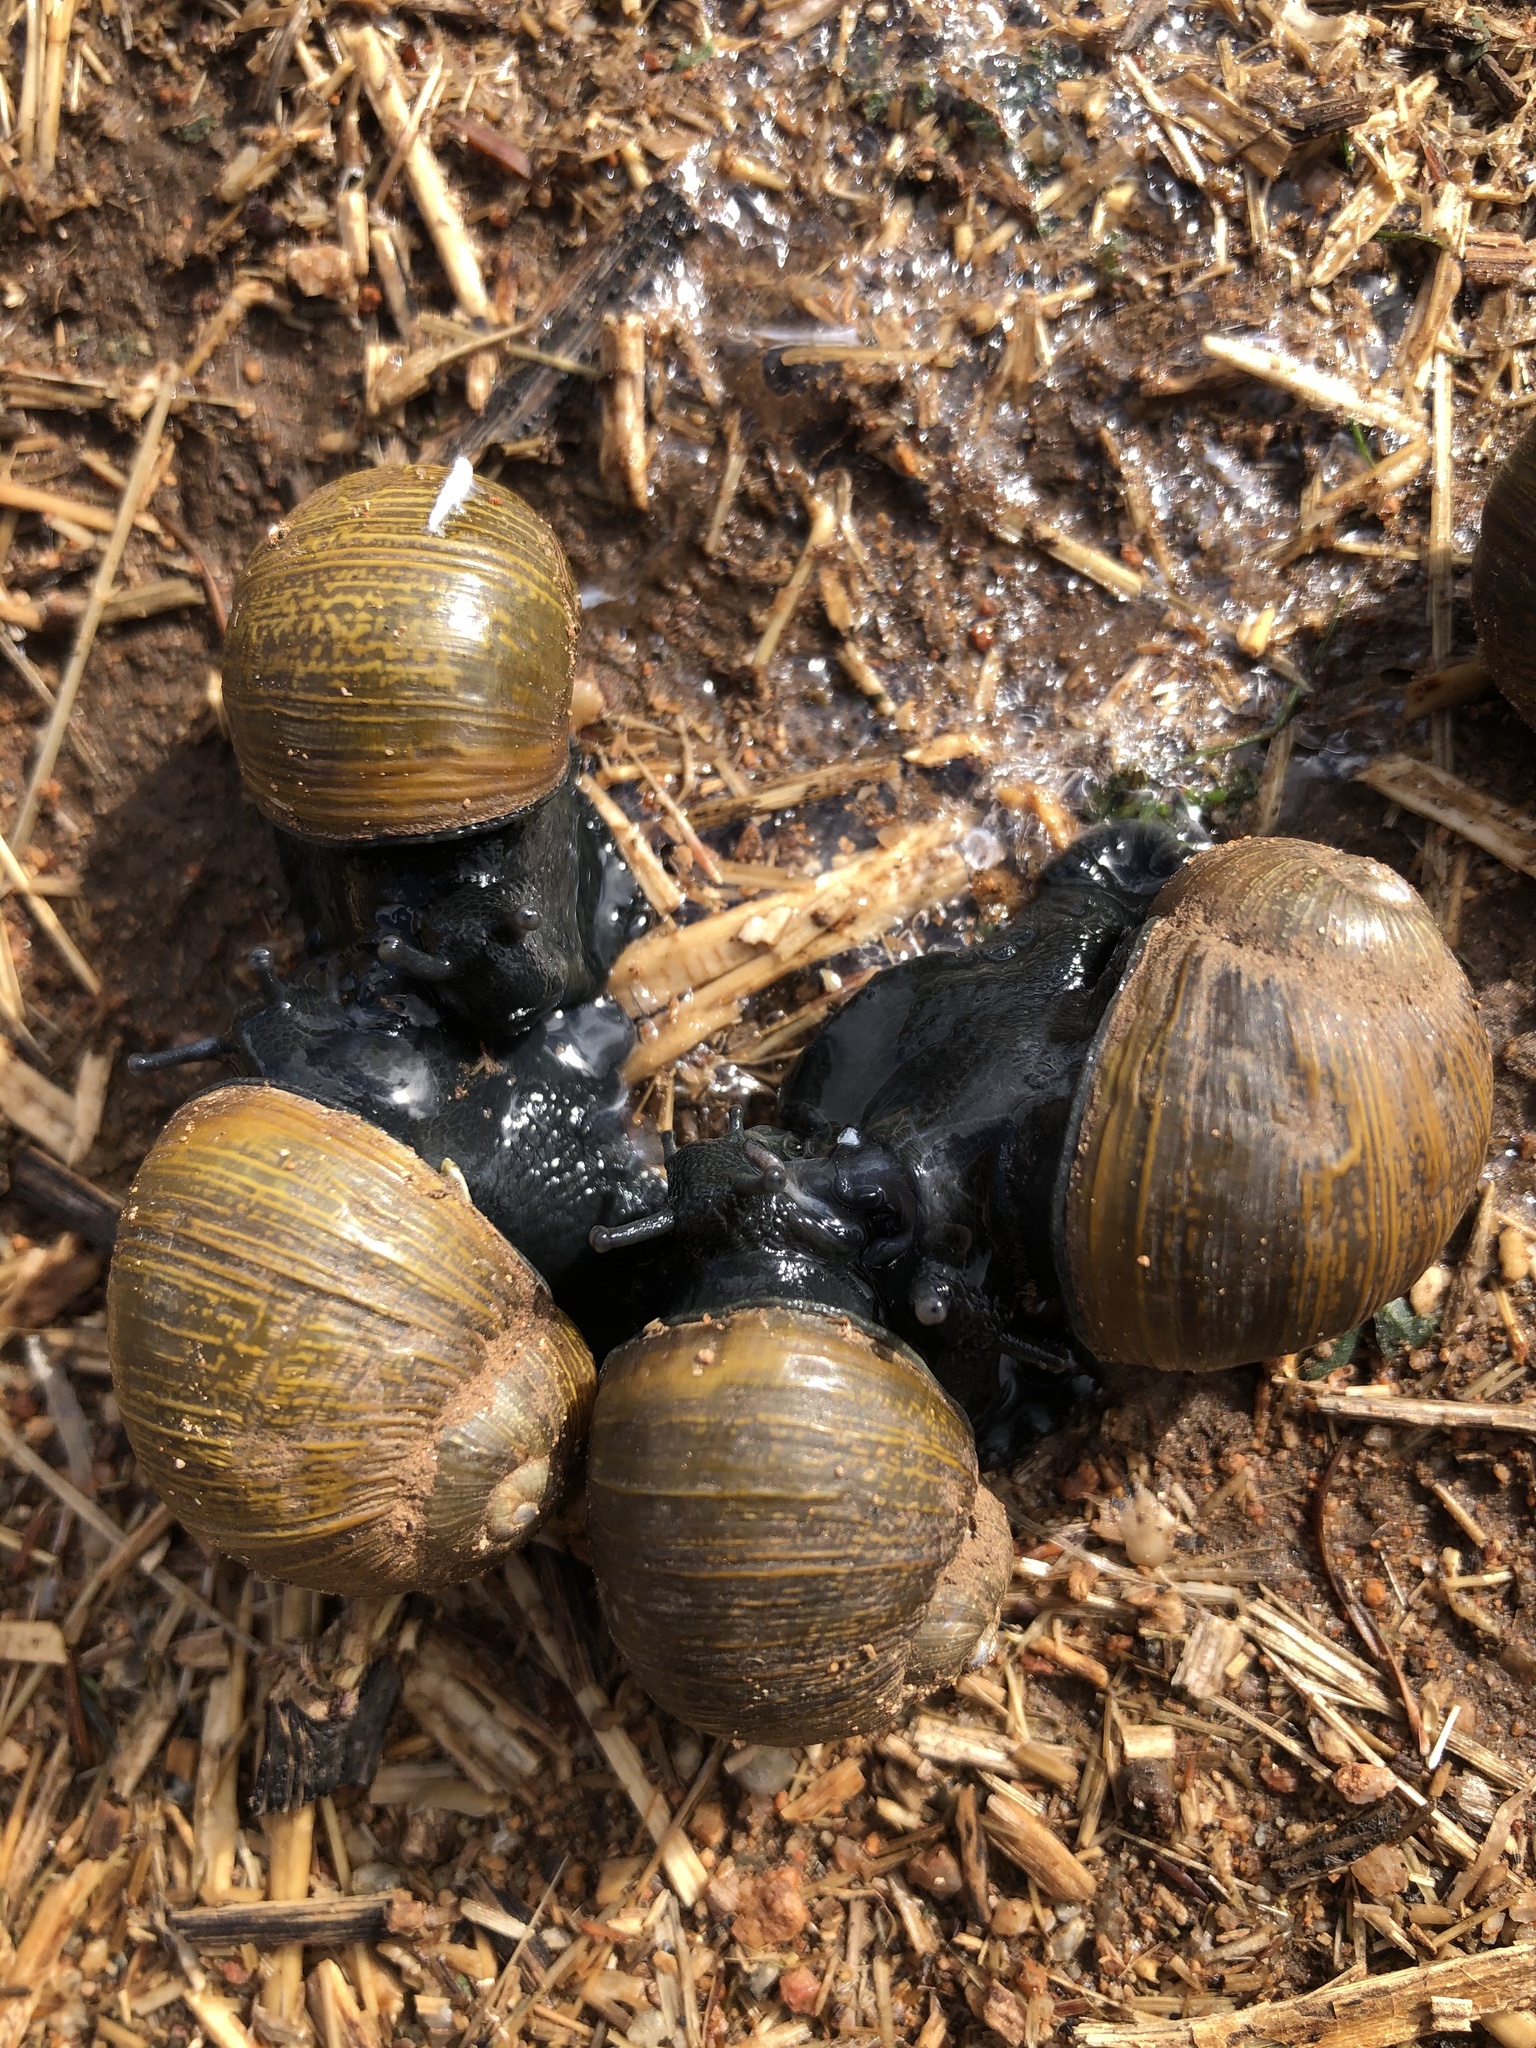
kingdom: Animalia
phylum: Mollusca
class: Gastropoda
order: Stylommatophora
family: Helicidae
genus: Cantareus
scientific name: Cantareus apertus
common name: Green gardensnail
